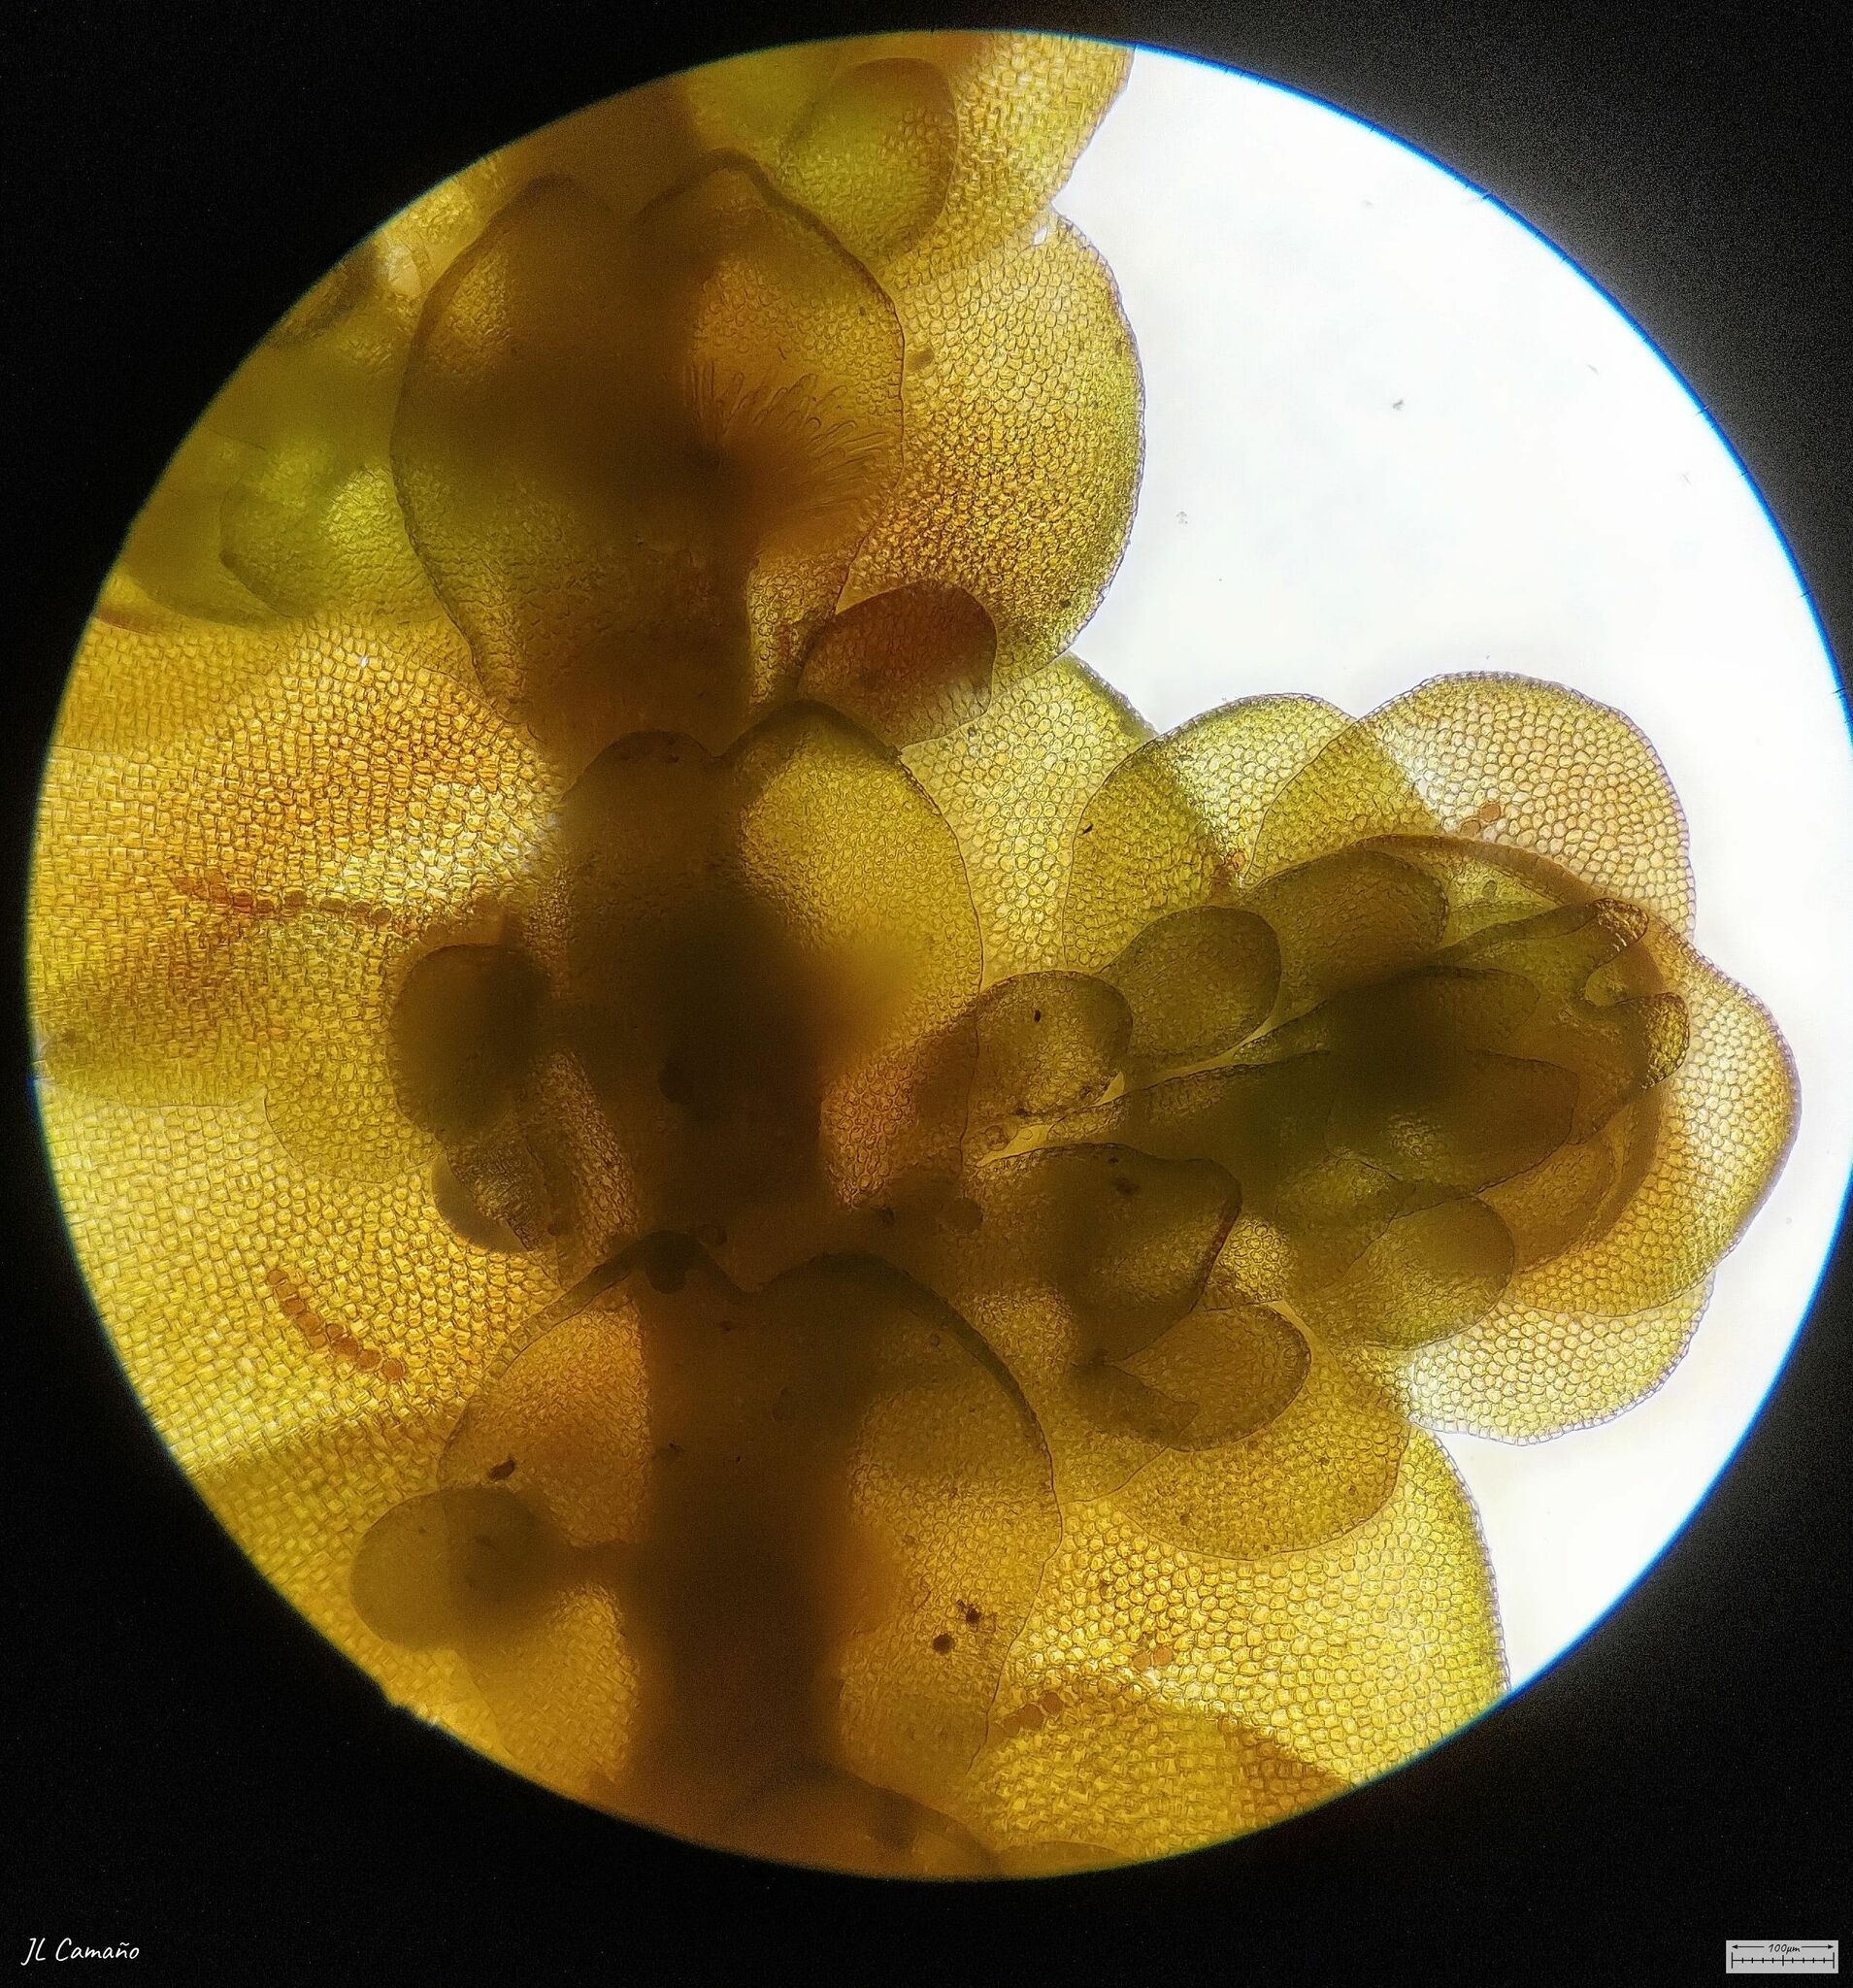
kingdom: Plantae
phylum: Marchantiophyta
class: Jungermanniopsida
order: Porellales
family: Frullaniaceae
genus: Frullania
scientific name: Frullania tamarisci
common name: Tamarisk scalewort
